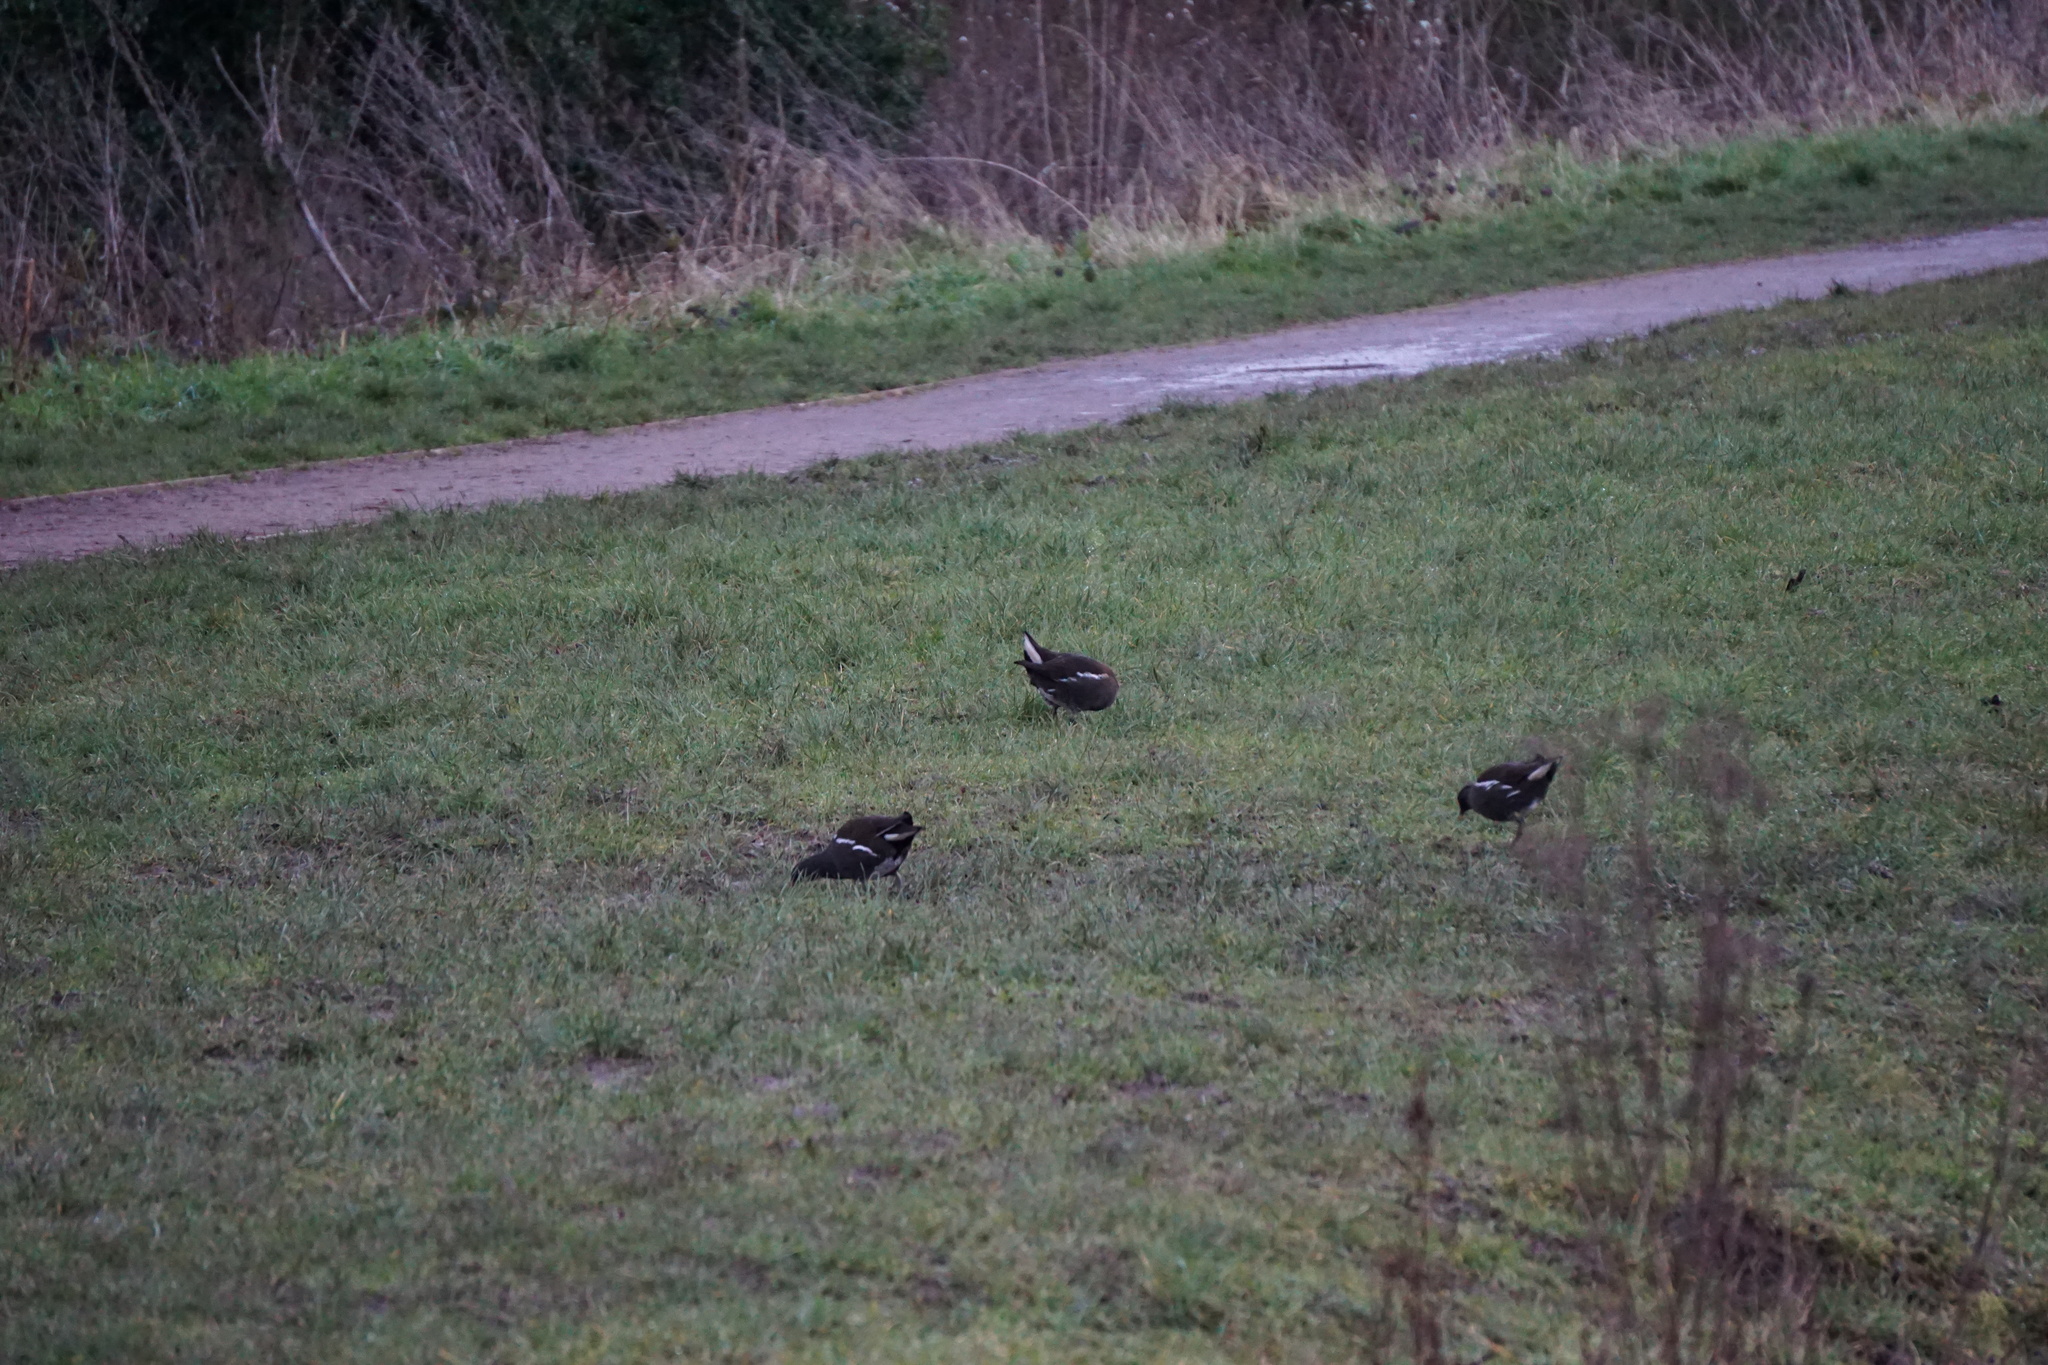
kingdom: Animalia
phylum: Chordata
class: Aves
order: Gruiformes
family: Rallidae
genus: Gallinula
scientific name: Gallinula chloropus
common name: Common moorhen
